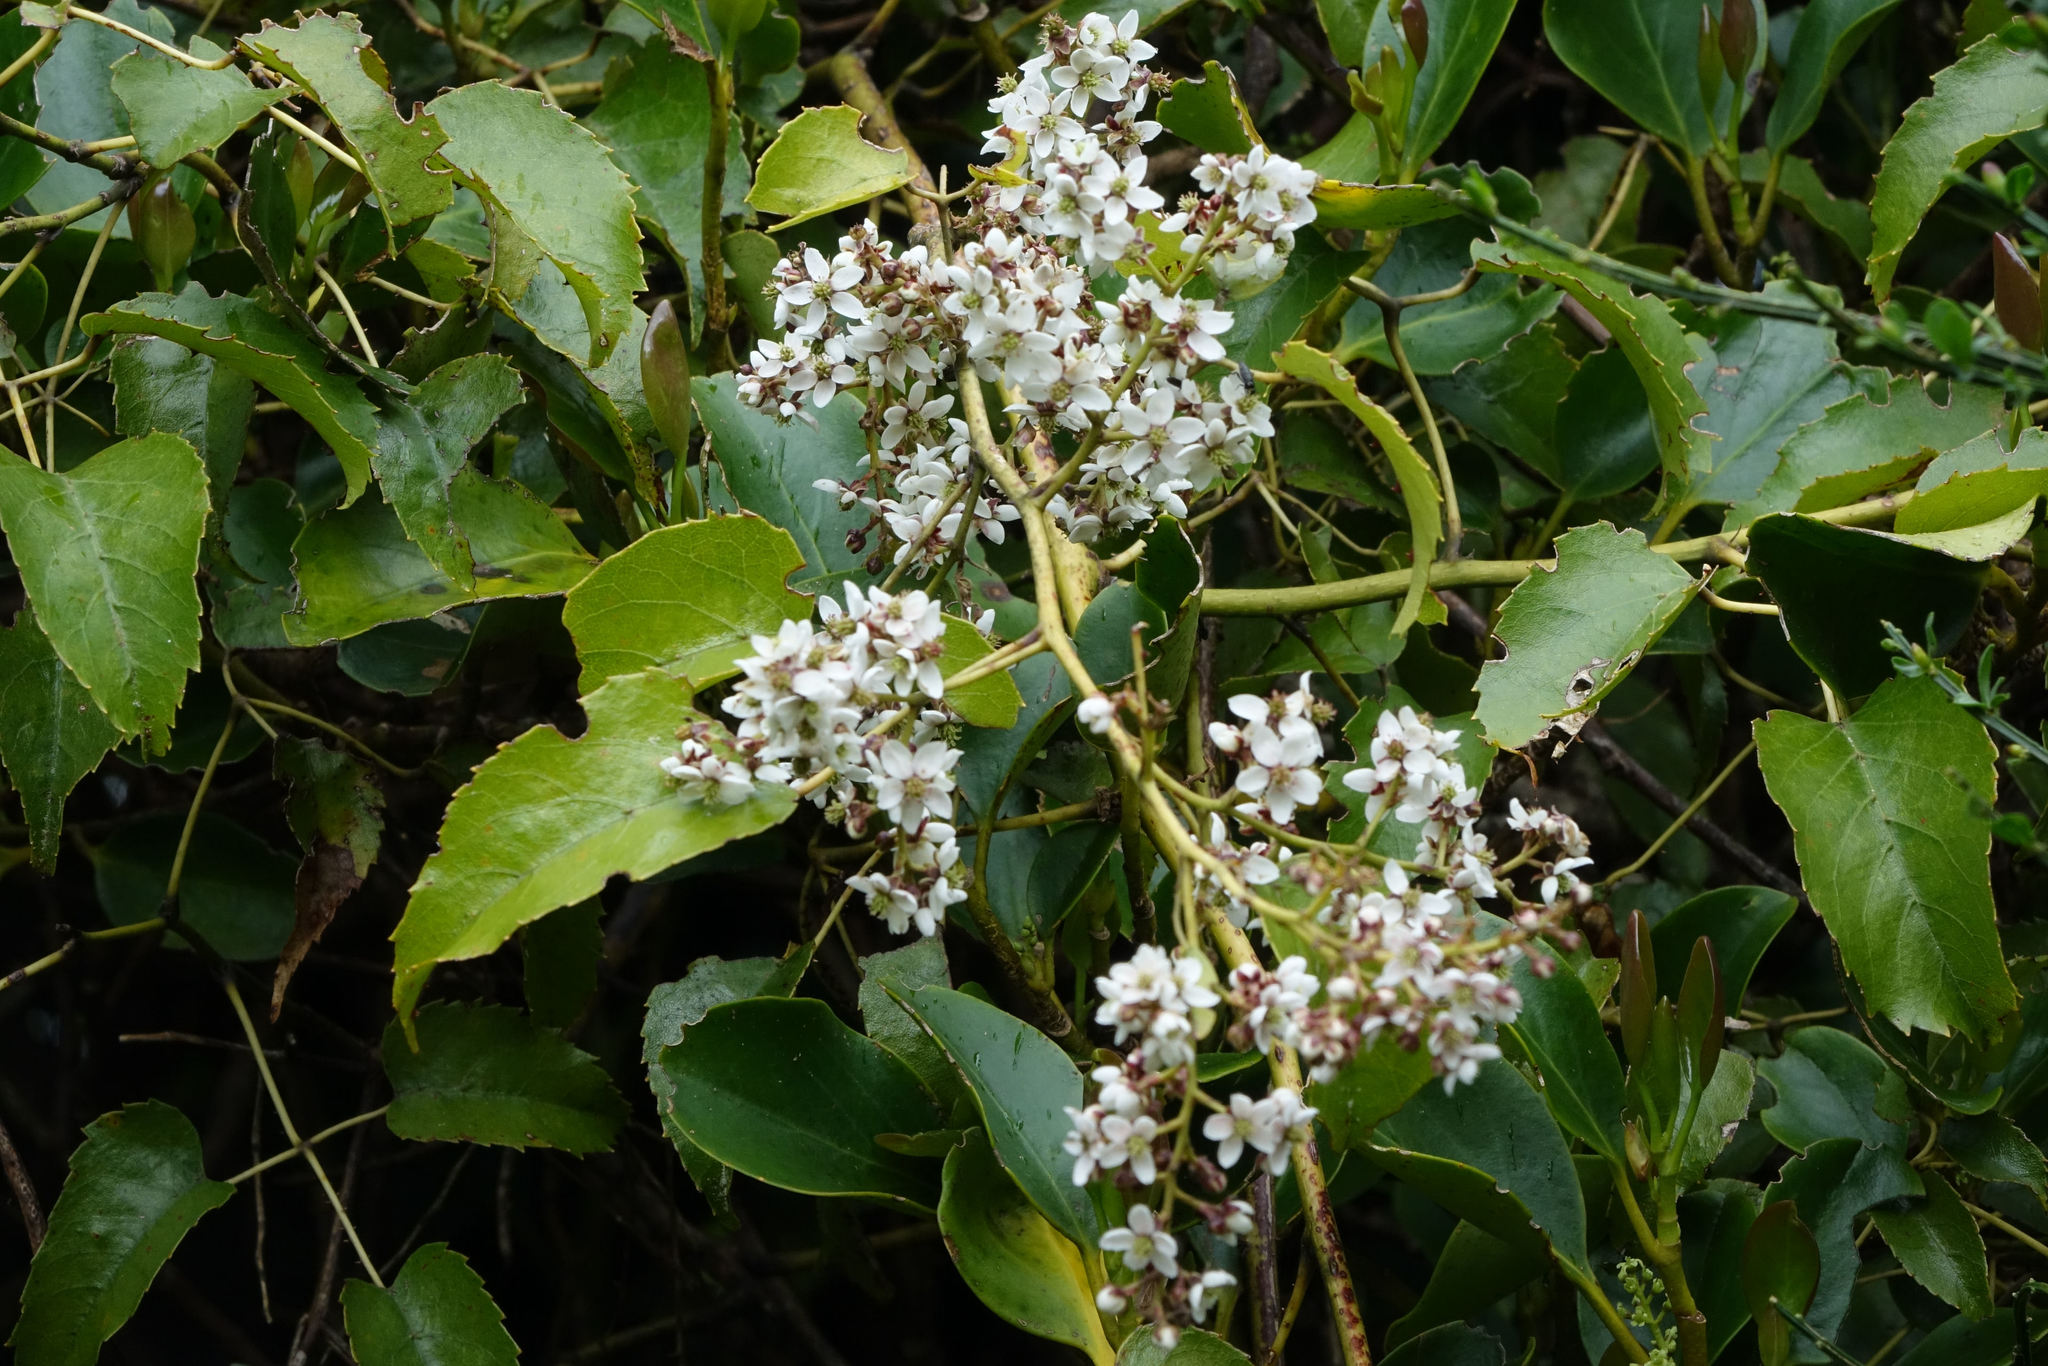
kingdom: Plantae
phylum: Tracheophyta
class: Magnoliopsida
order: Rosales
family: Rosaceae
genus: Rubus
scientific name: Rubus cissoides
